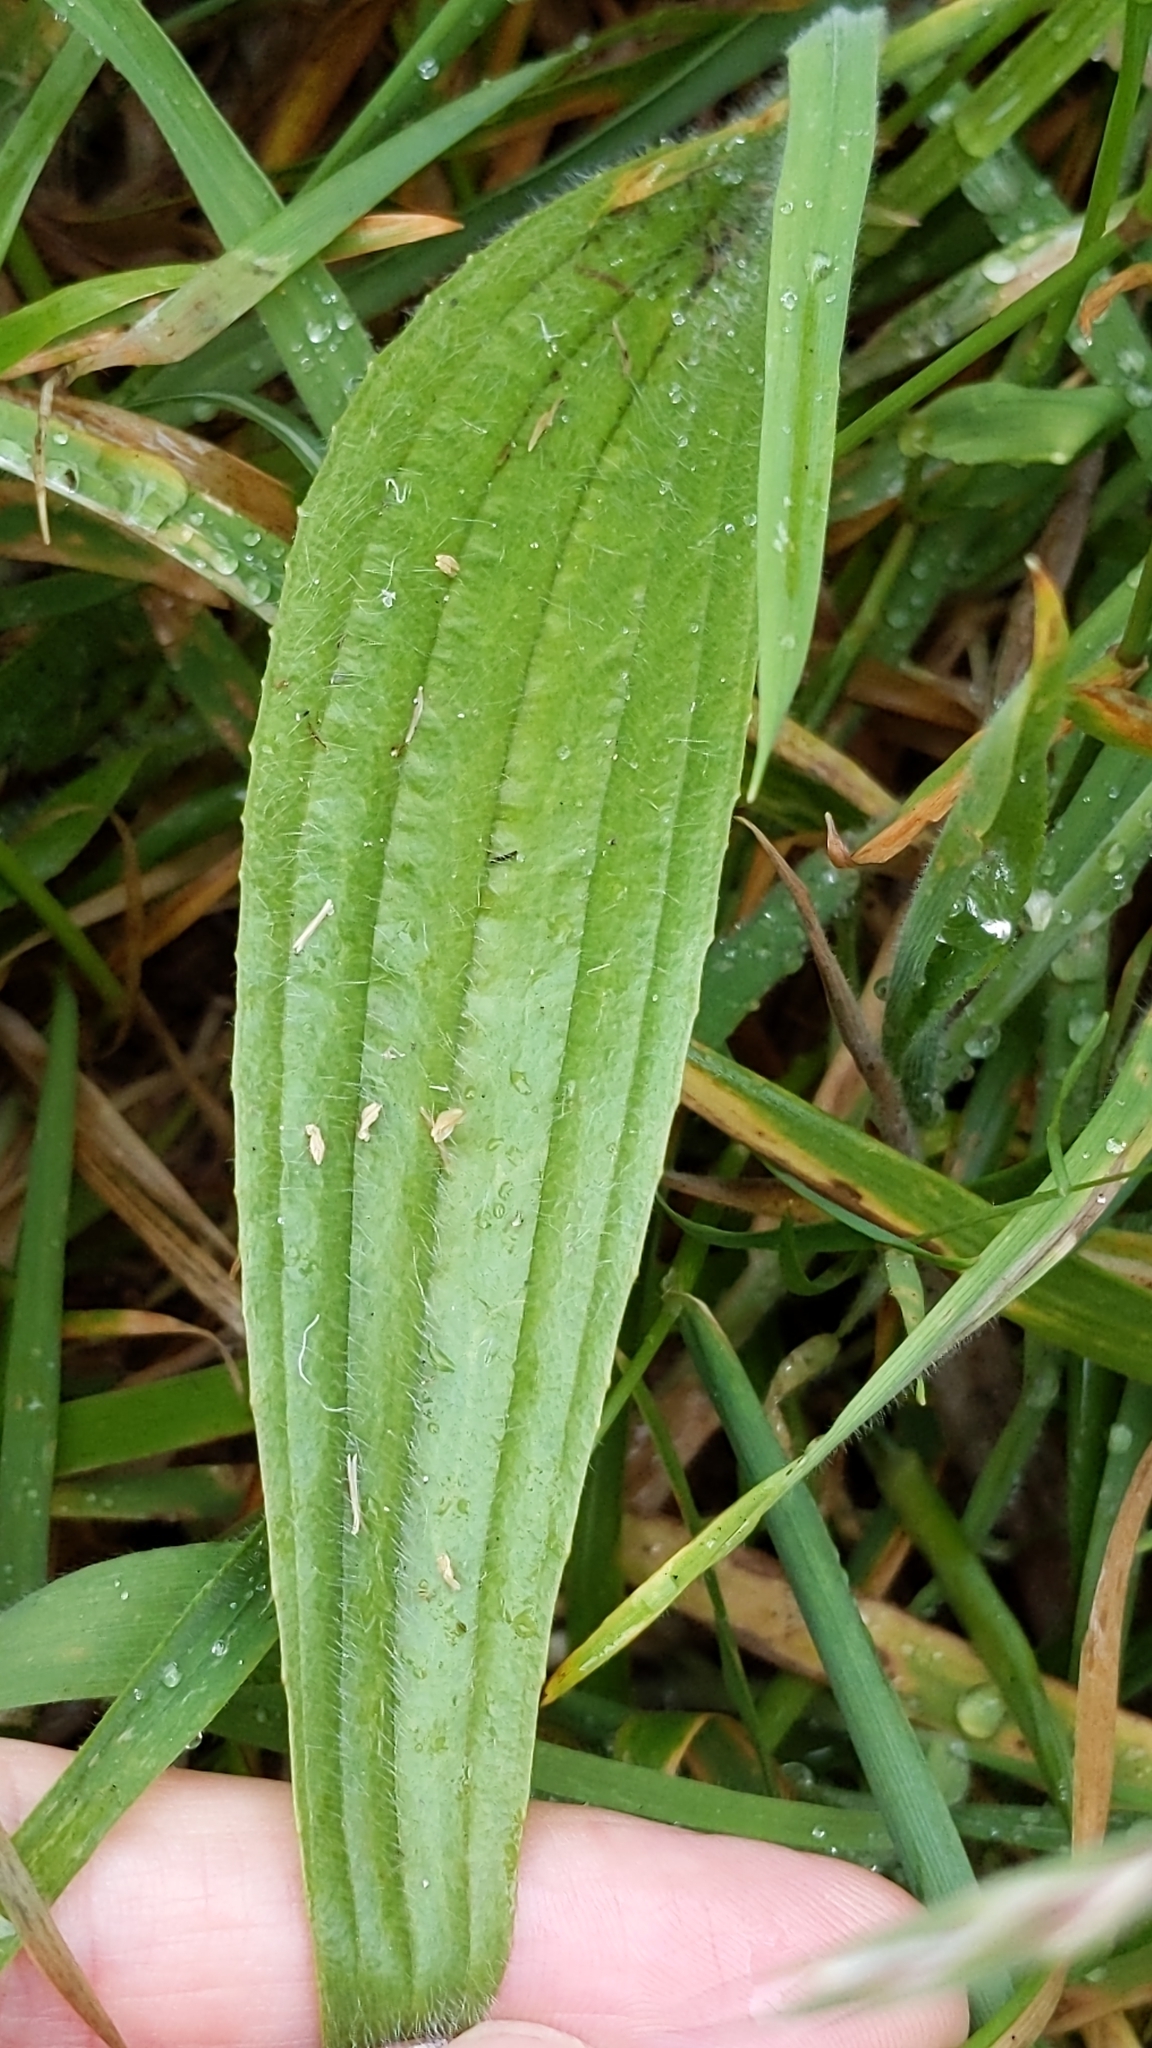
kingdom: Plantae
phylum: Tracheophyta
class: Magnoliopsida
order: Lamiales
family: Plantaginaceae
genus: Plantago
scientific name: Plantago lanceolata
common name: Ribwort plantain
